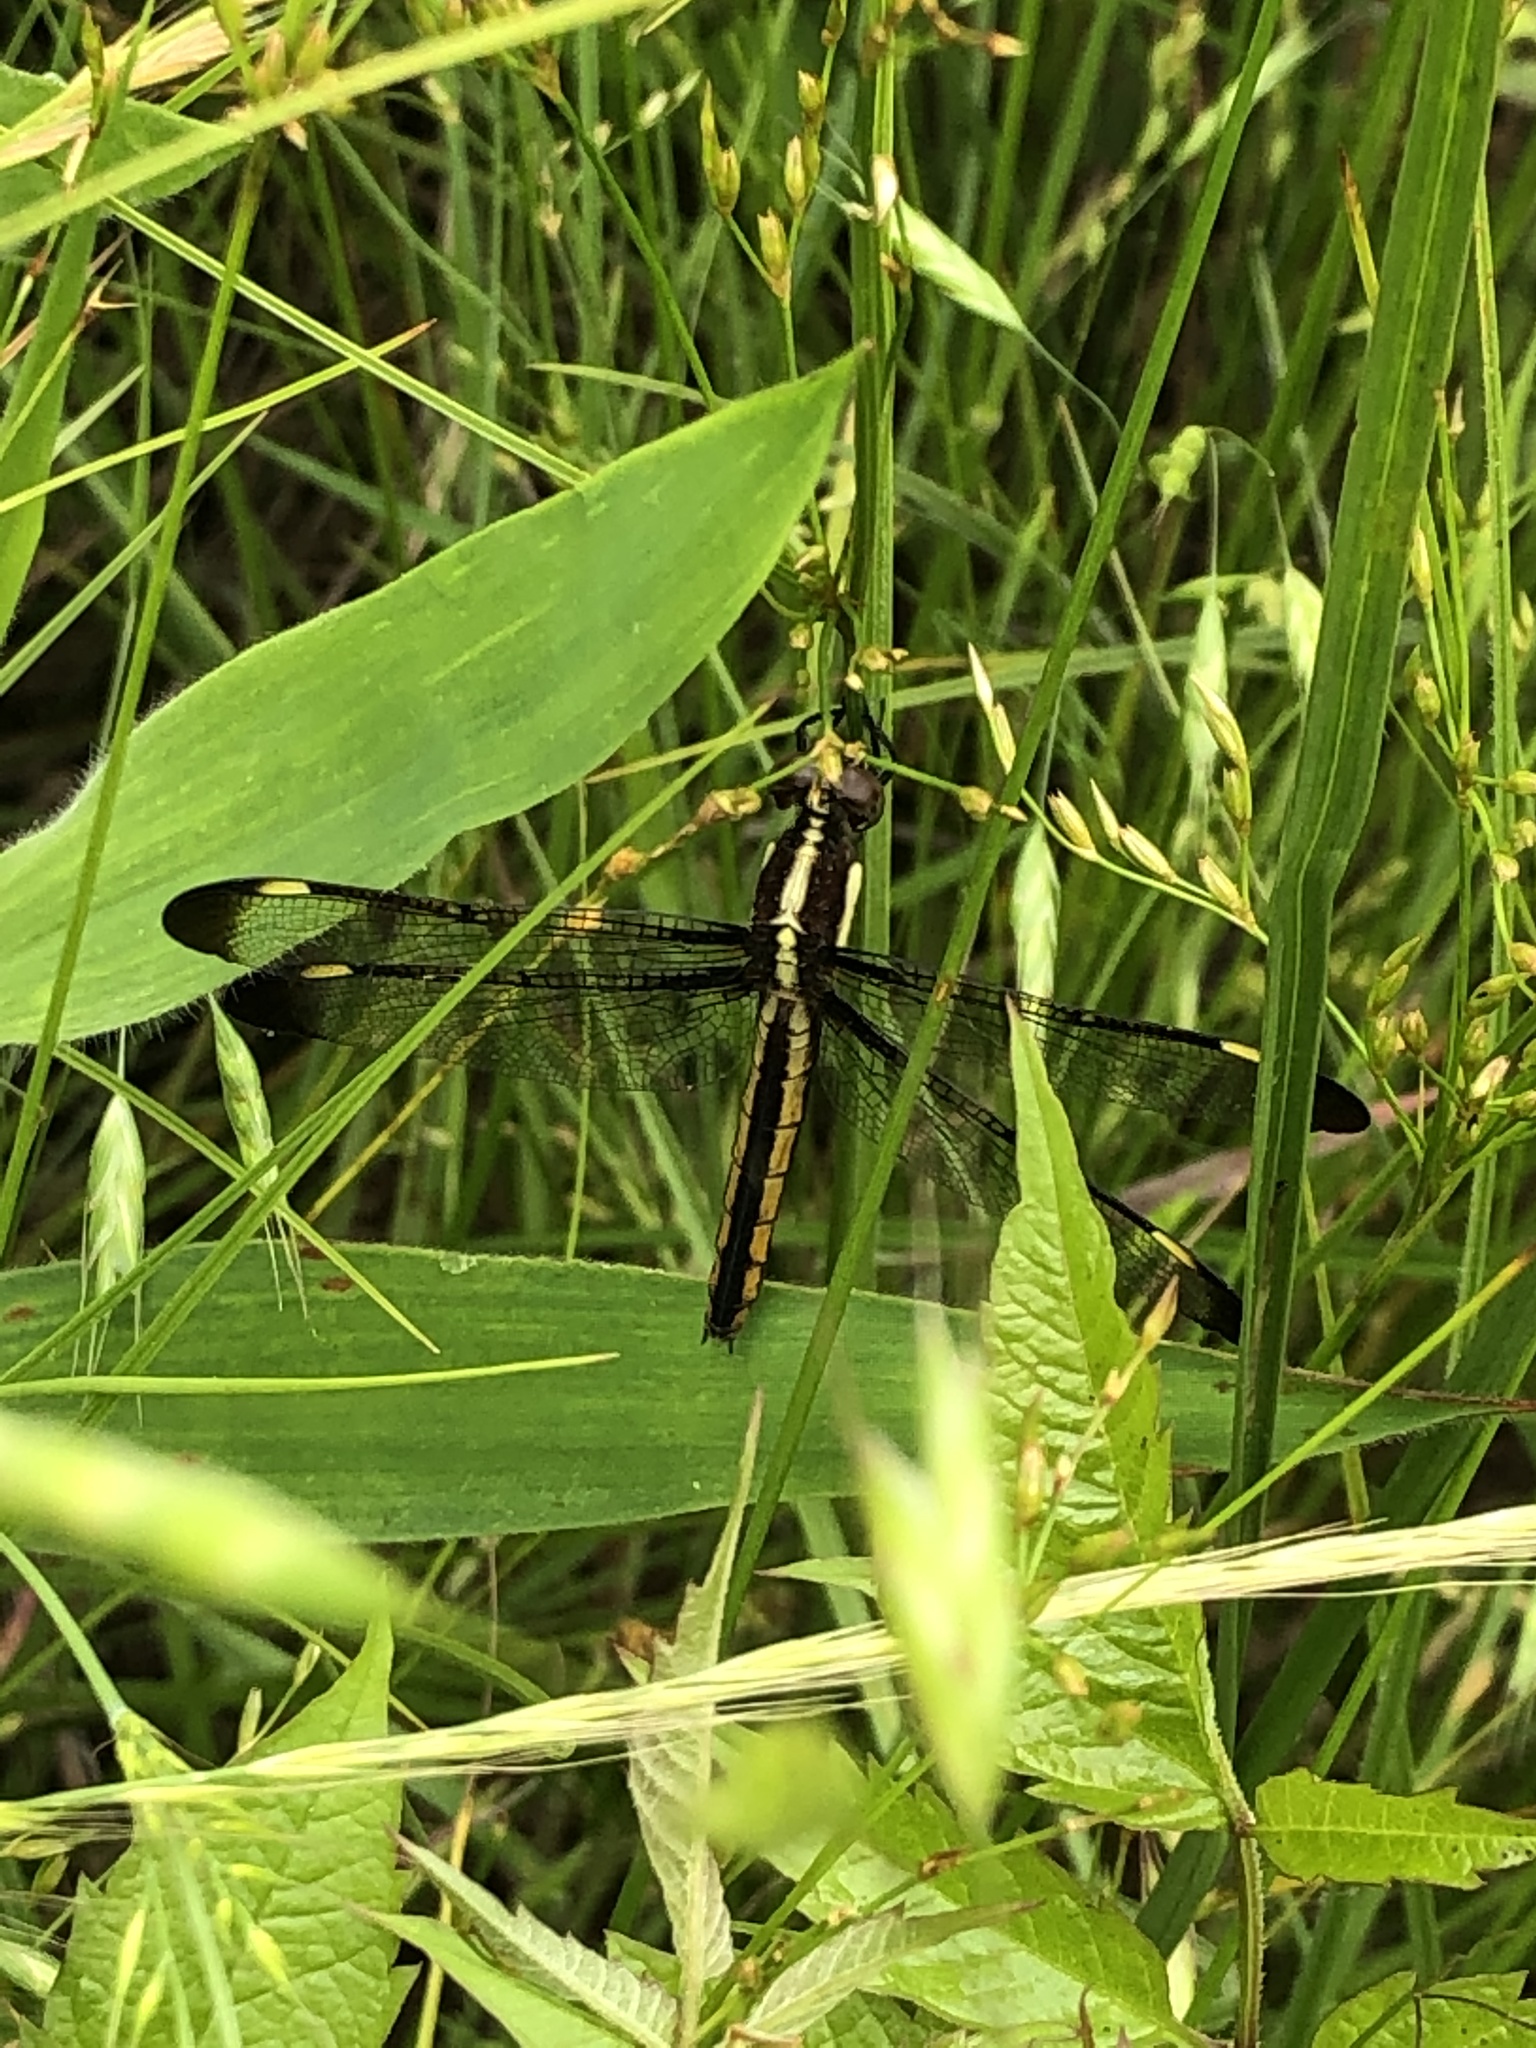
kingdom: Animalia
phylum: Arthropoda
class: Insecta
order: Odonata
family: Libellulidae
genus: Libellula
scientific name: Libellula cyanea
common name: Spangled skimmer
